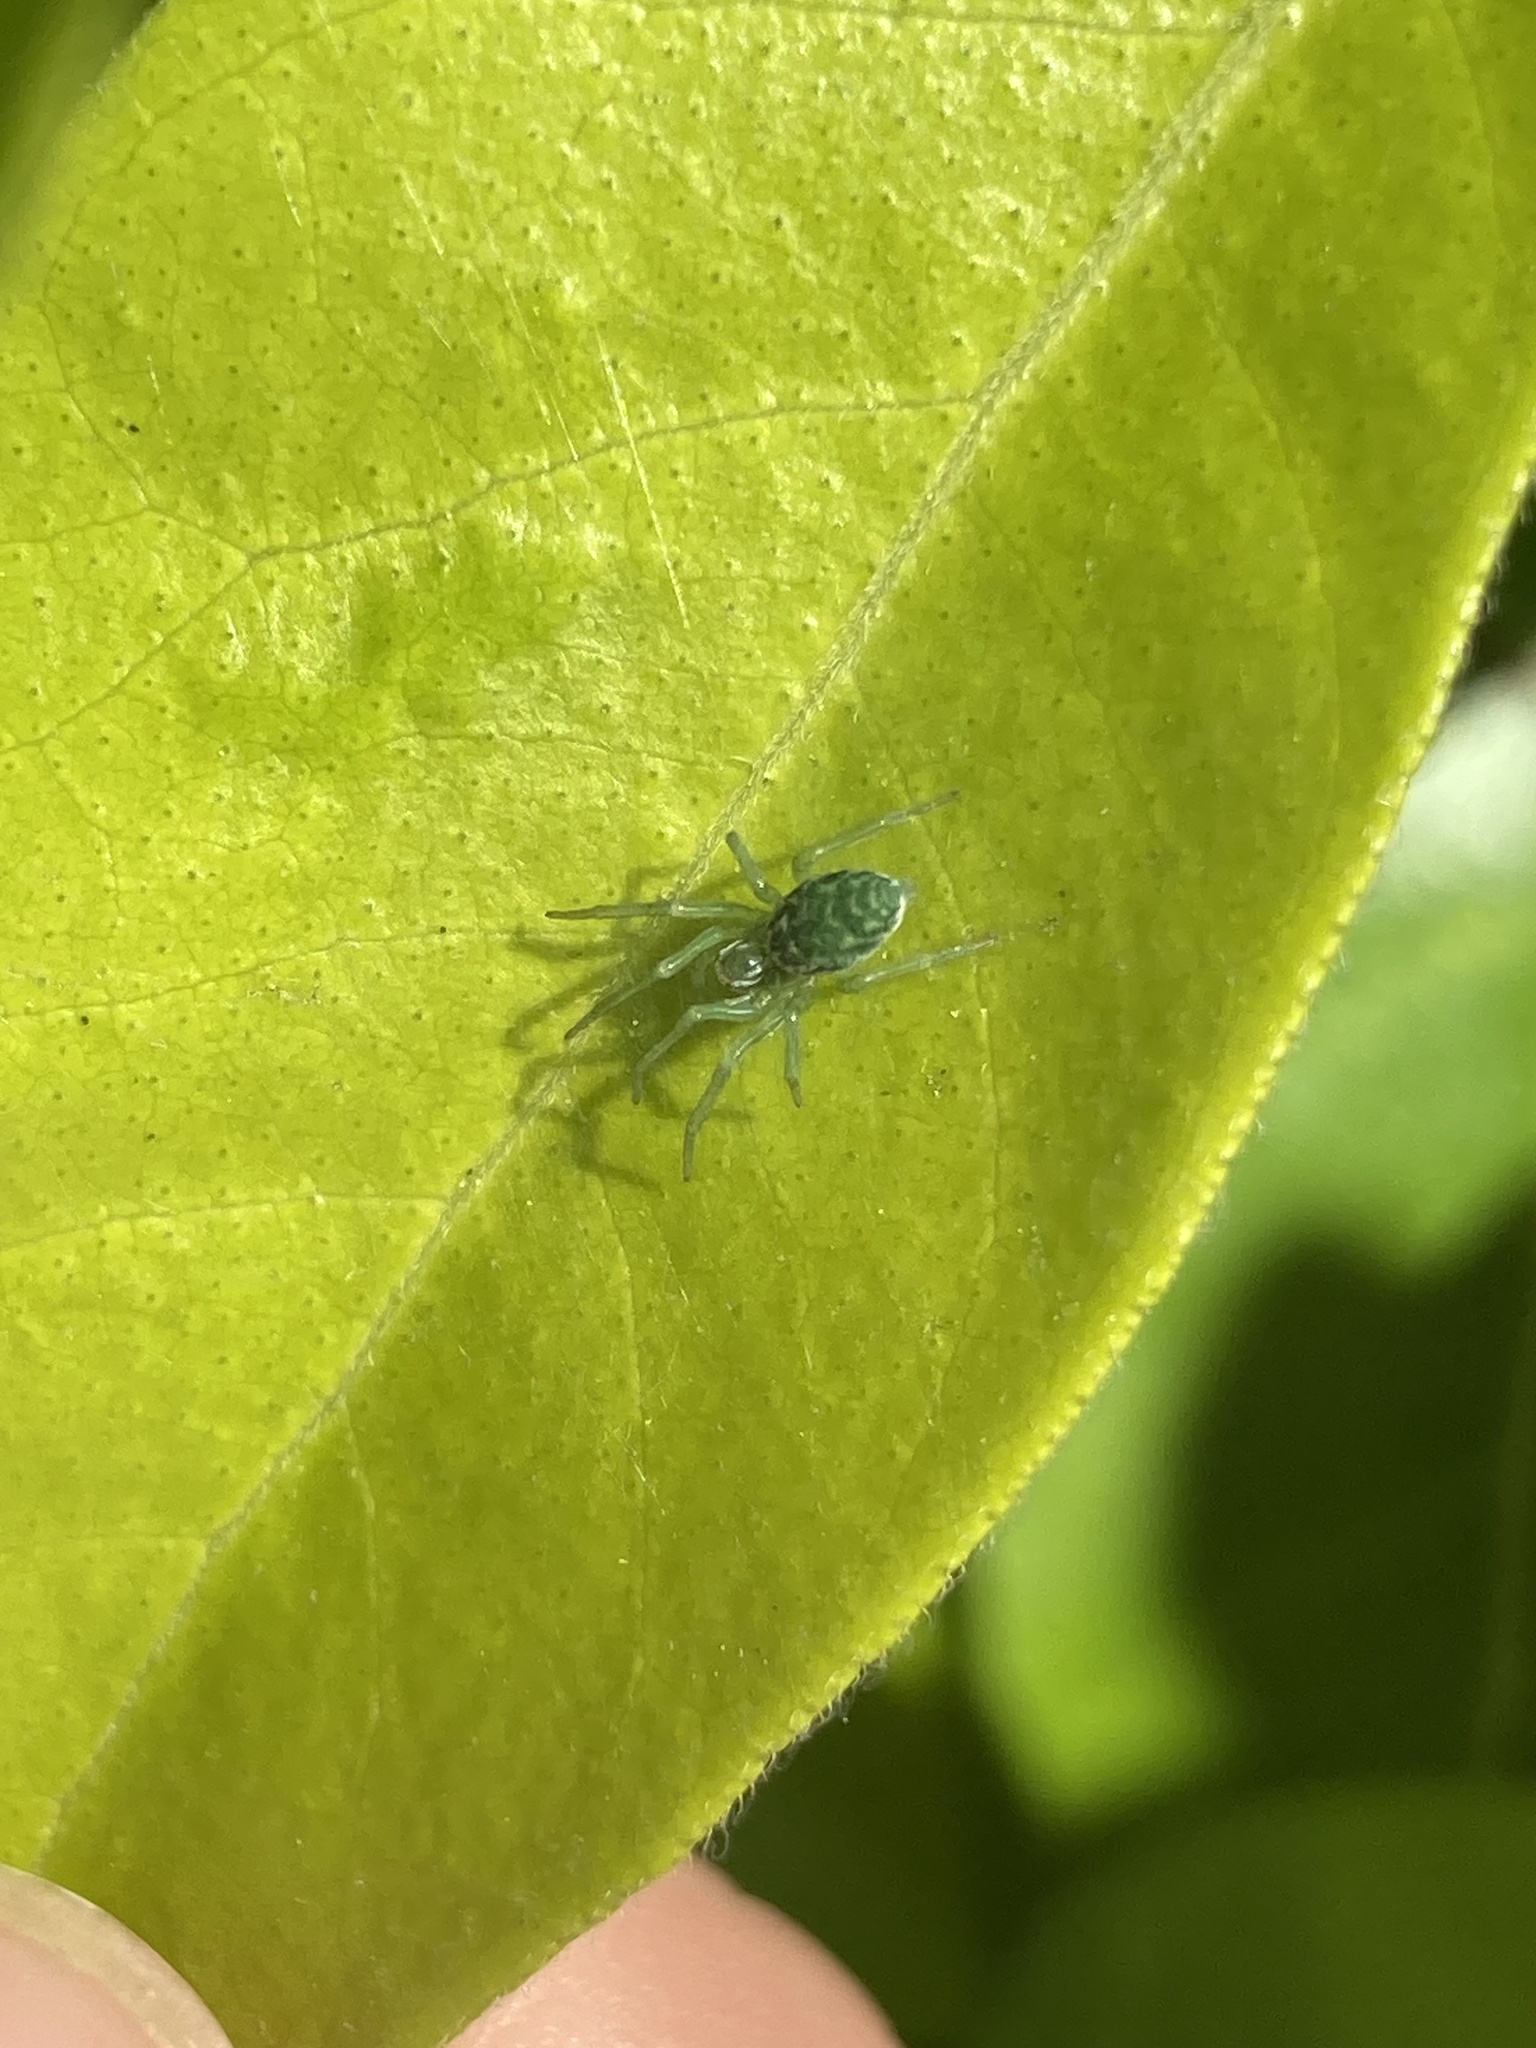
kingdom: Animalia
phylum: Arthropoda
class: Arachnida
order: Araneae
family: Dictynidae
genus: Nigma
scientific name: Nigma walckenaeri
